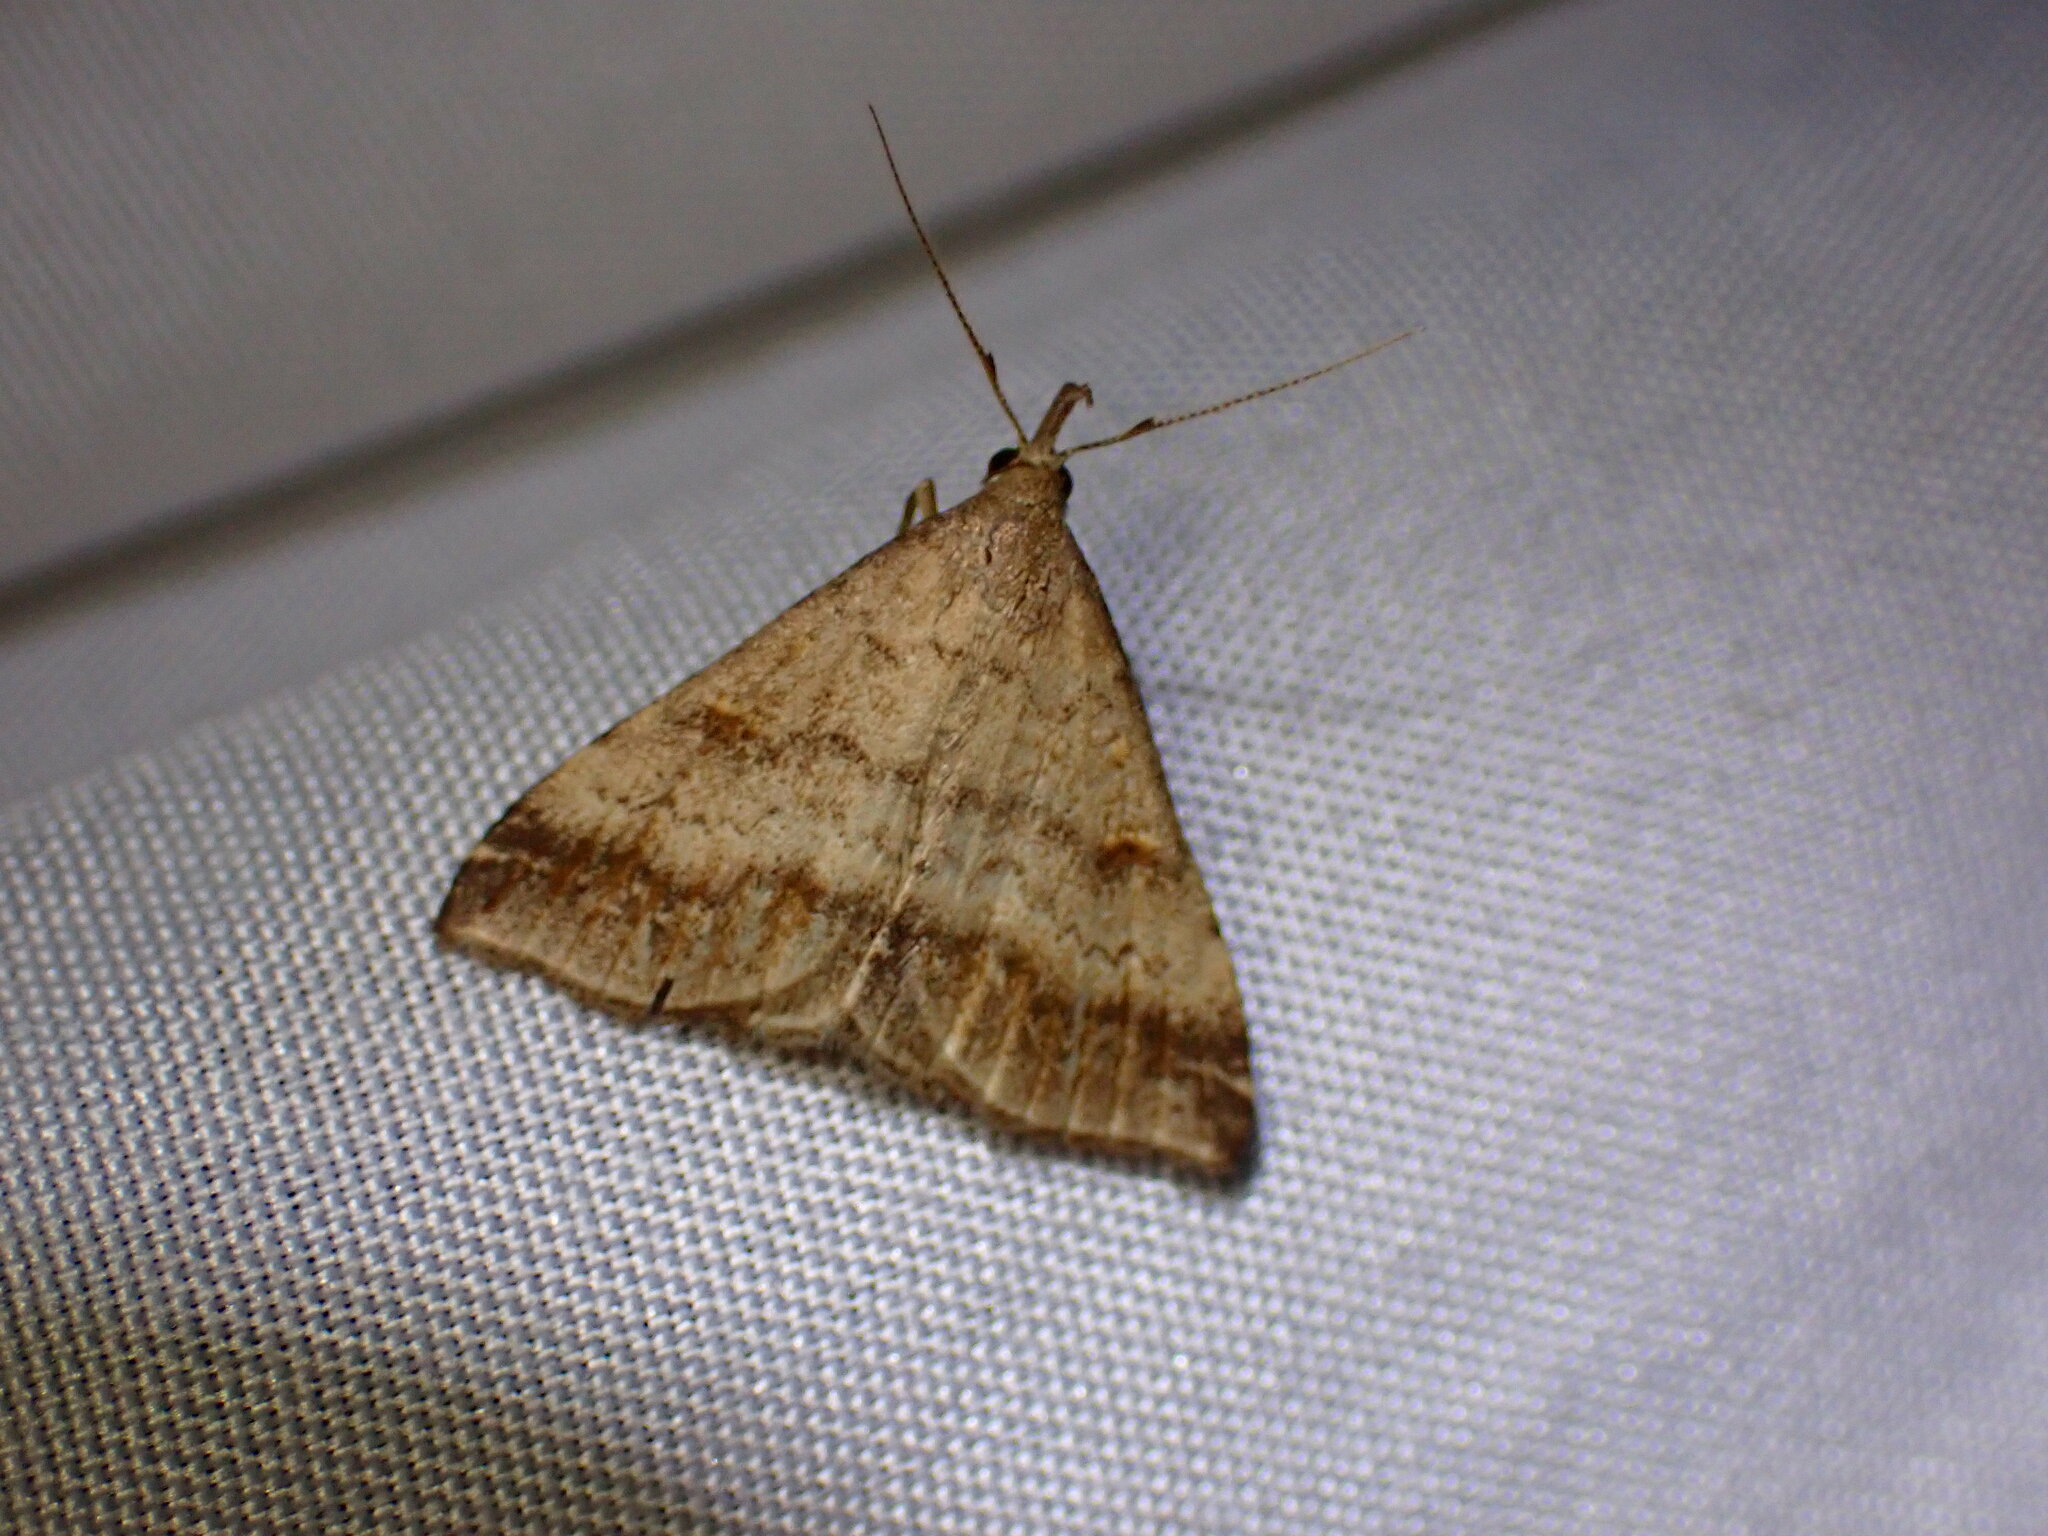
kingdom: Animalia
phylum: Arthropoda
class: Insecta
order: Lepidoptera
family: Erebidae
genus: Tetanolita
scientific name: Tetanolita palligera
